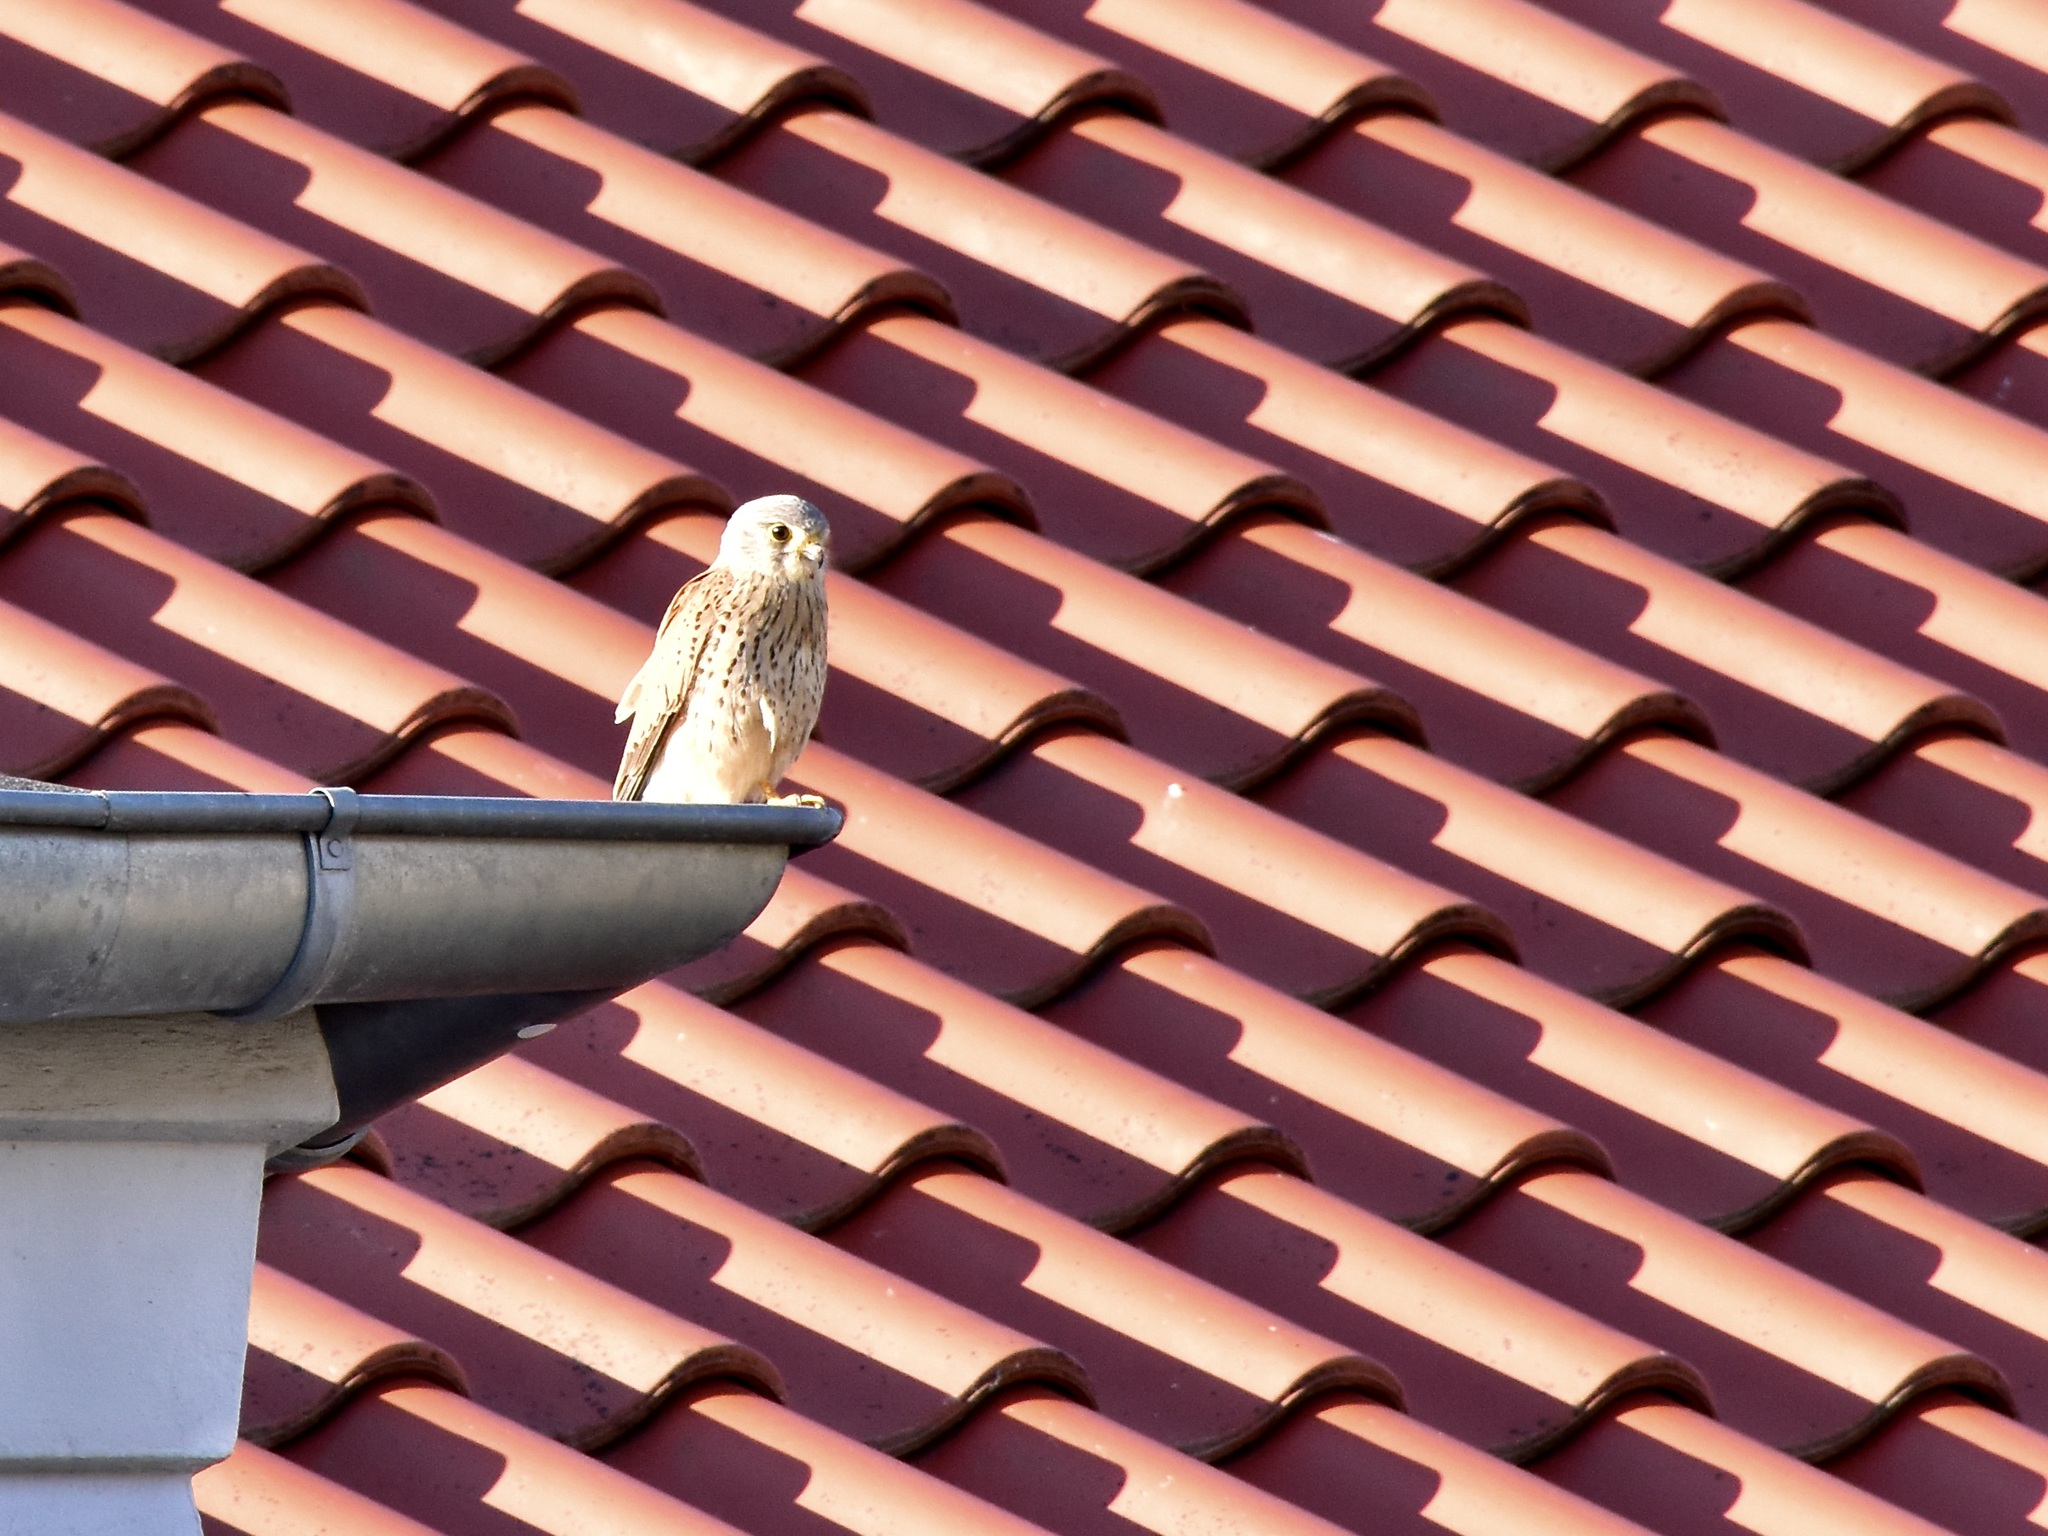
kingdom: Animalia
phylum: Chordata
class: Aves
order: Falconiformes
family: Falconidae
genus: Falco
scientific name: Falco tinnunculus
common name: Common kestrel
